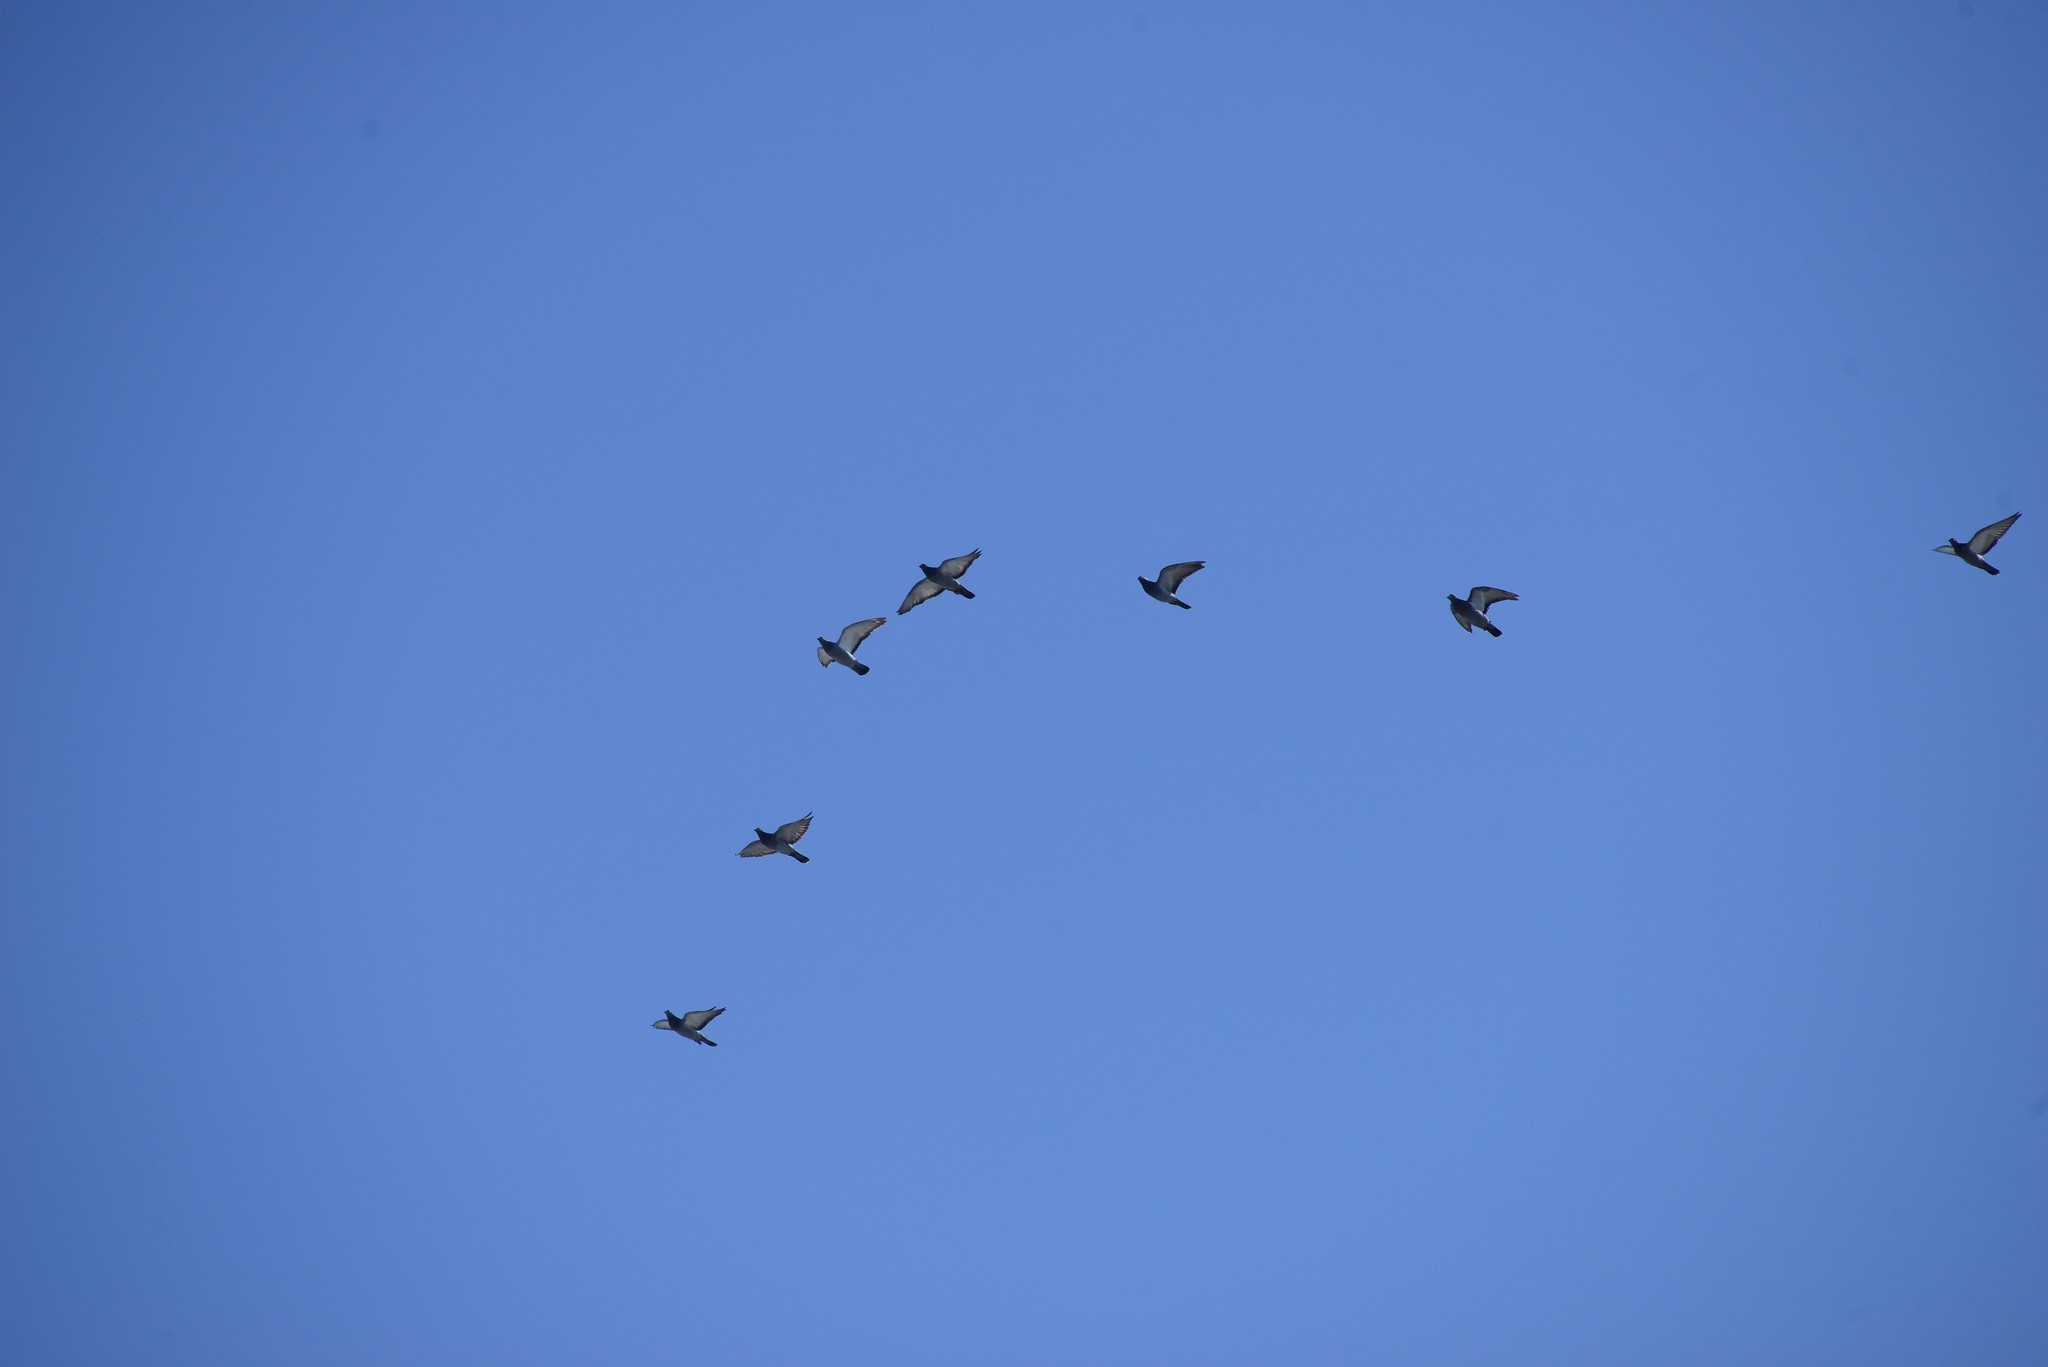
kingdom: Animalia
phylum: Chordata
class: Aves
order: Columbiformes
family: Columbidae
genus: Columba
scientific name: Columba livia
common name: Rock pigeon
